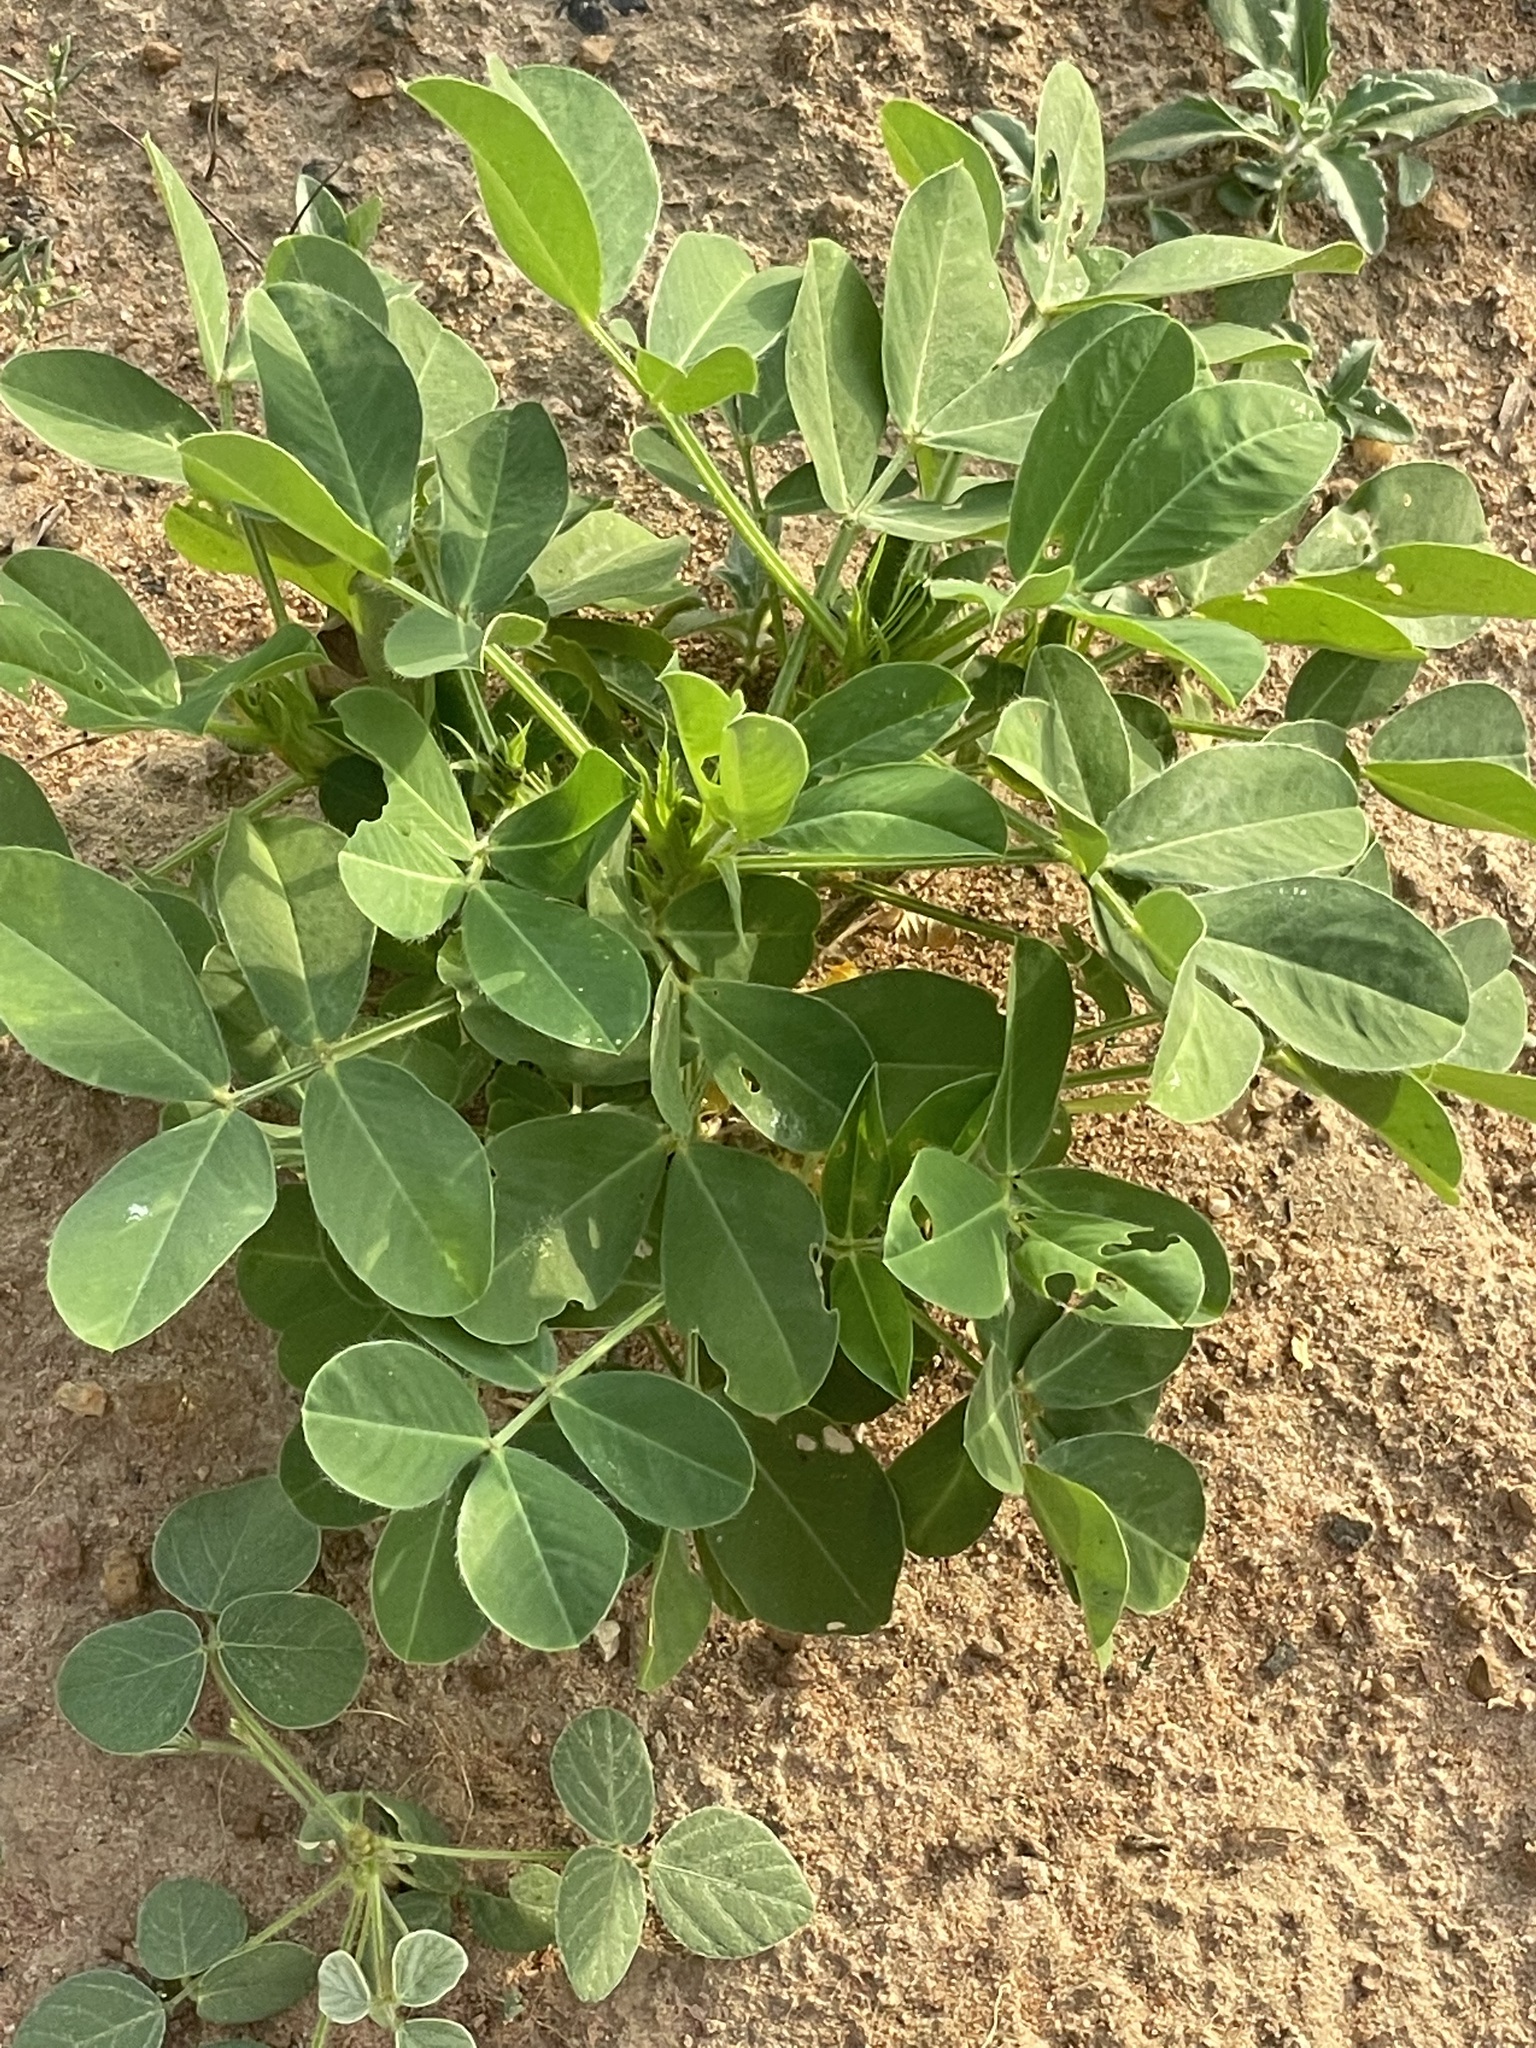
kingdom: Plantae
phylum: Tracheophyta
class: Magnoliopsida
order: Fabales
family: Fabaceae
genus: Arachis
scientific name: Arachis hypogaea
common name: Peanut
